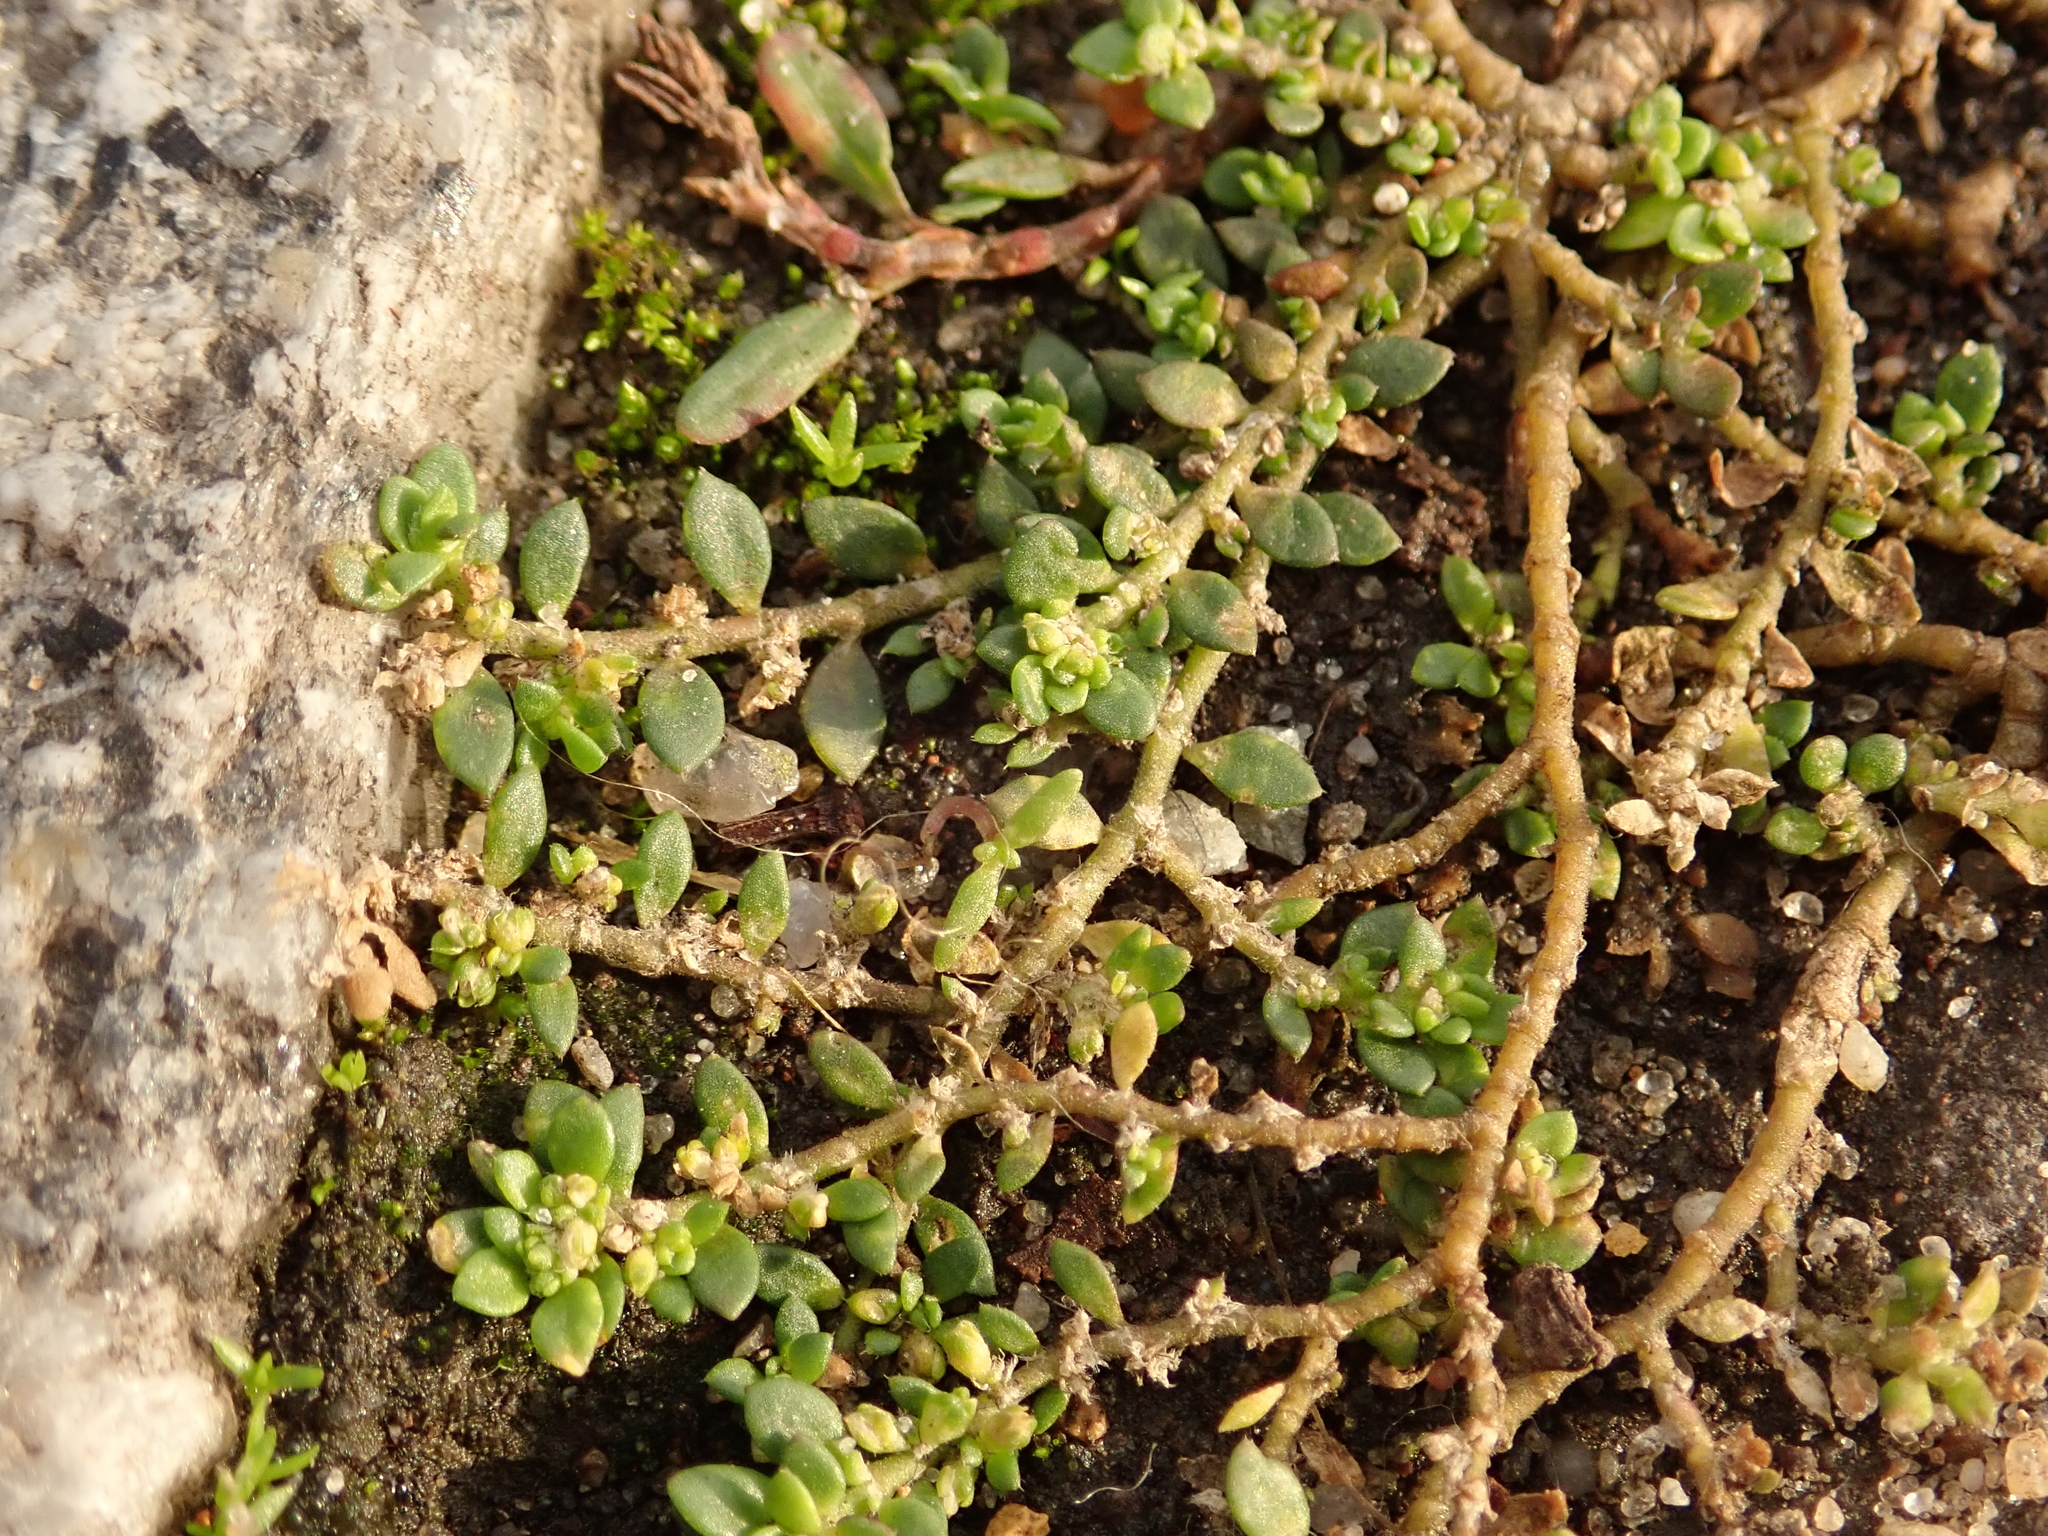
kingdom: Plantae
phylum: Tracheophyta
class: Magnoliopsida
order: Caryophyllales
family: Caryophyllaceae
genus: Herniaria
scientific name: Herniaria glabra
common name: Smooth rupturewort
